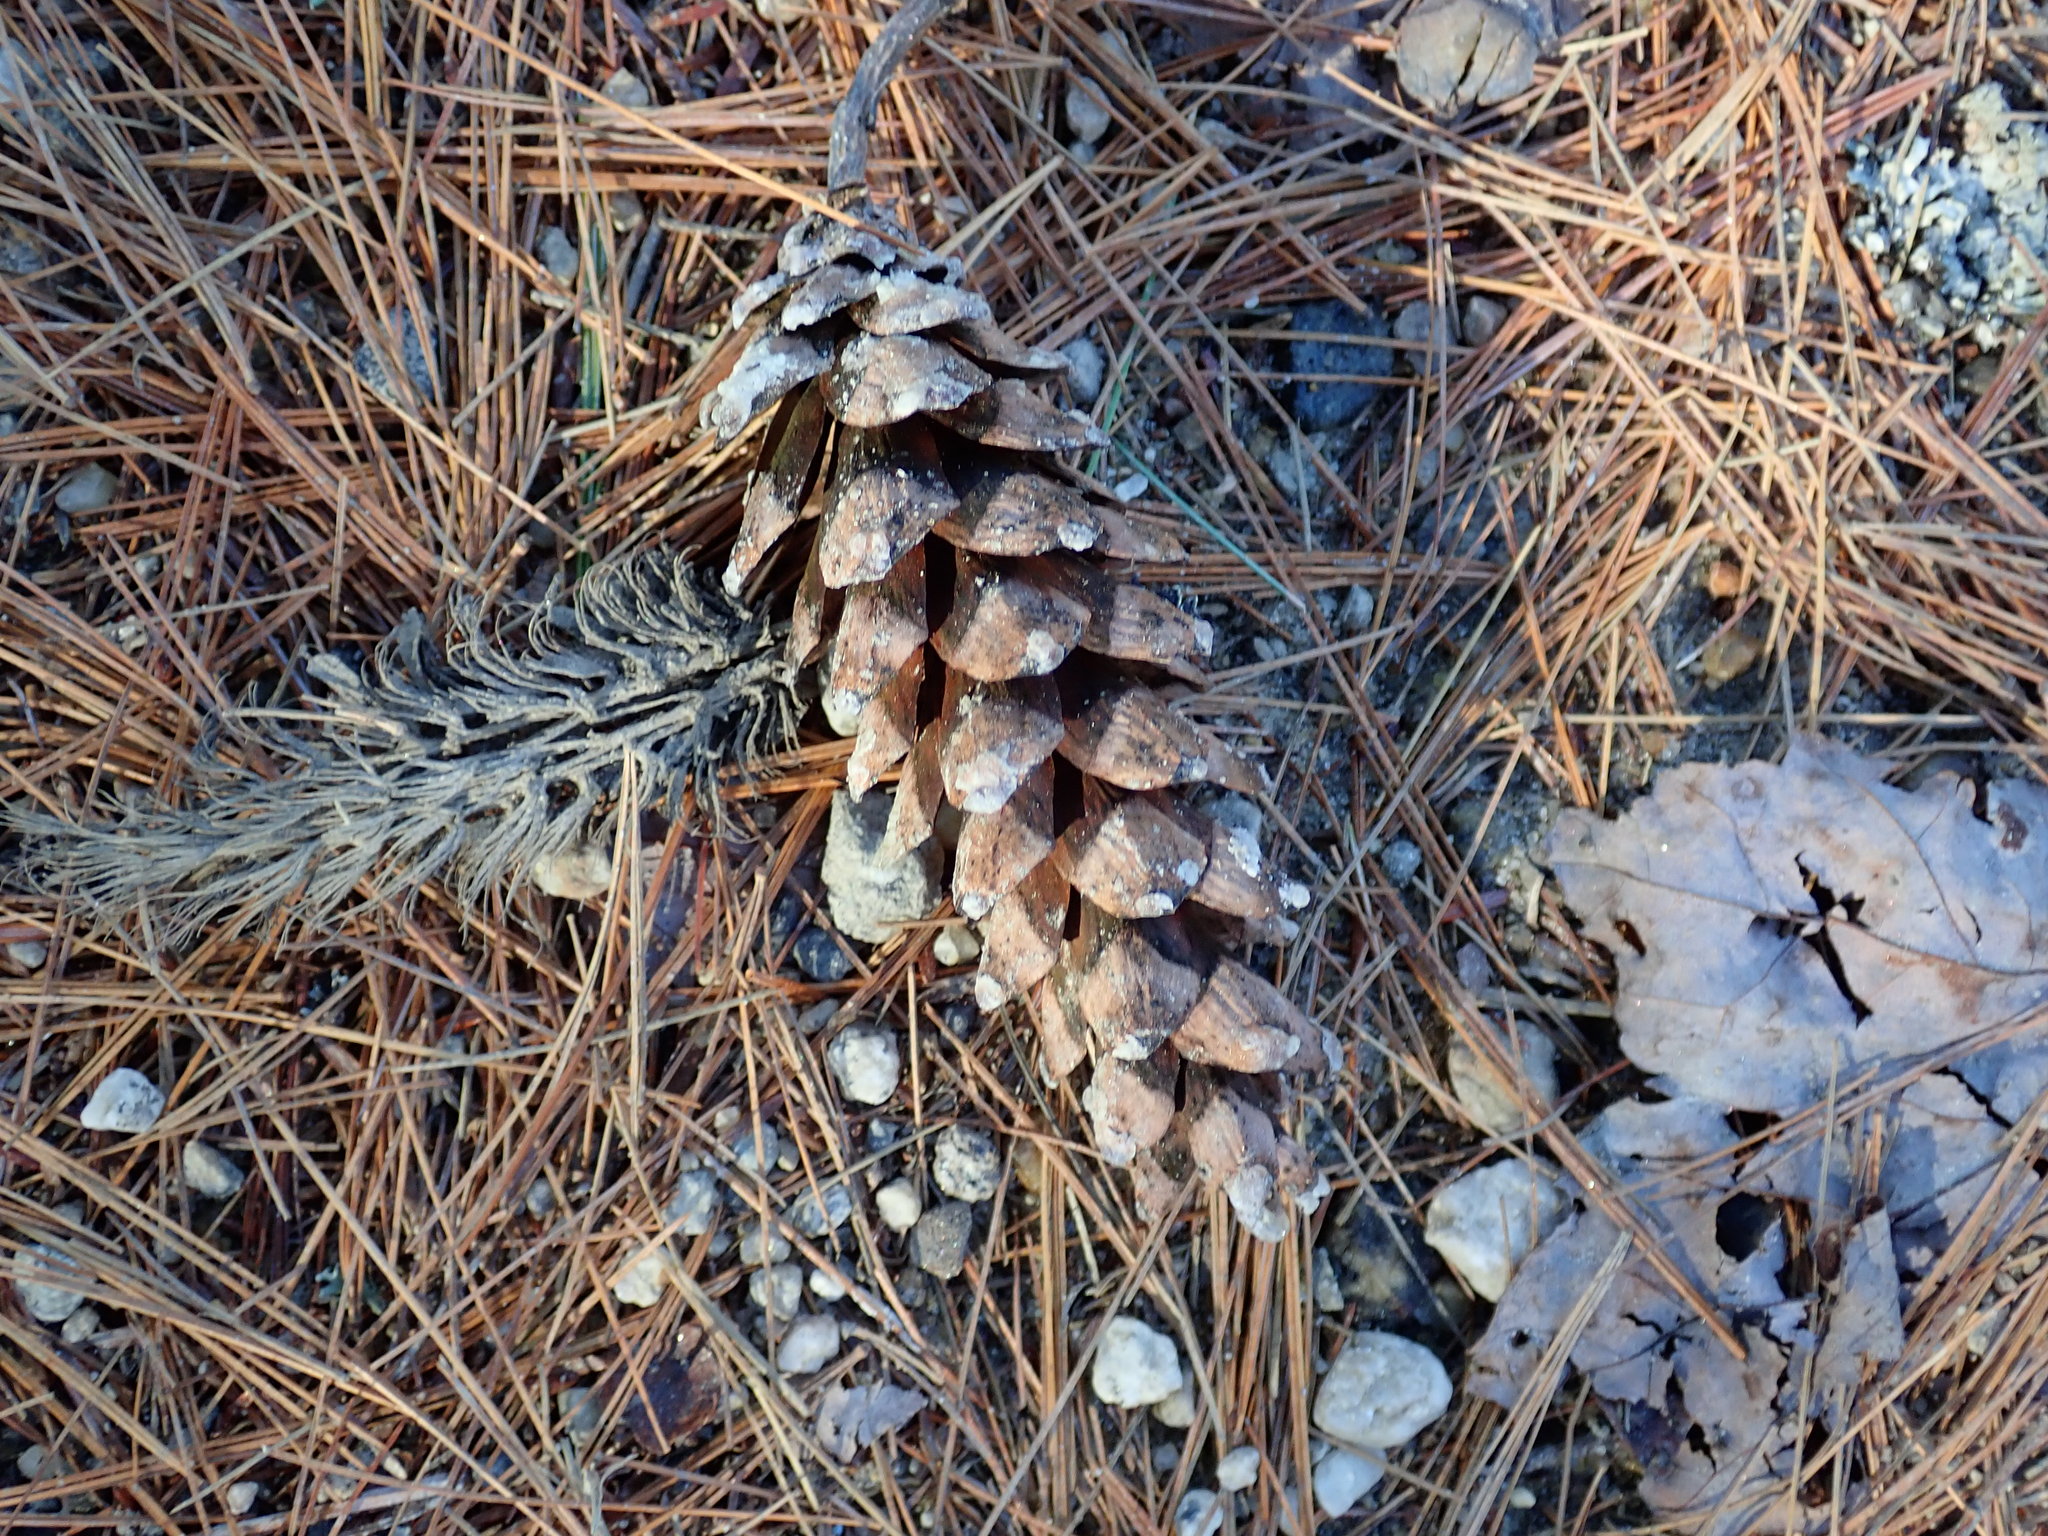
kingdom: Plantae
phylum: Tracheophyta
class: Pinopsida
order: Pinales
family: Pinaceae
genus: Pinus
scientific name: Pinus strobus
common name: Weymouth pine
